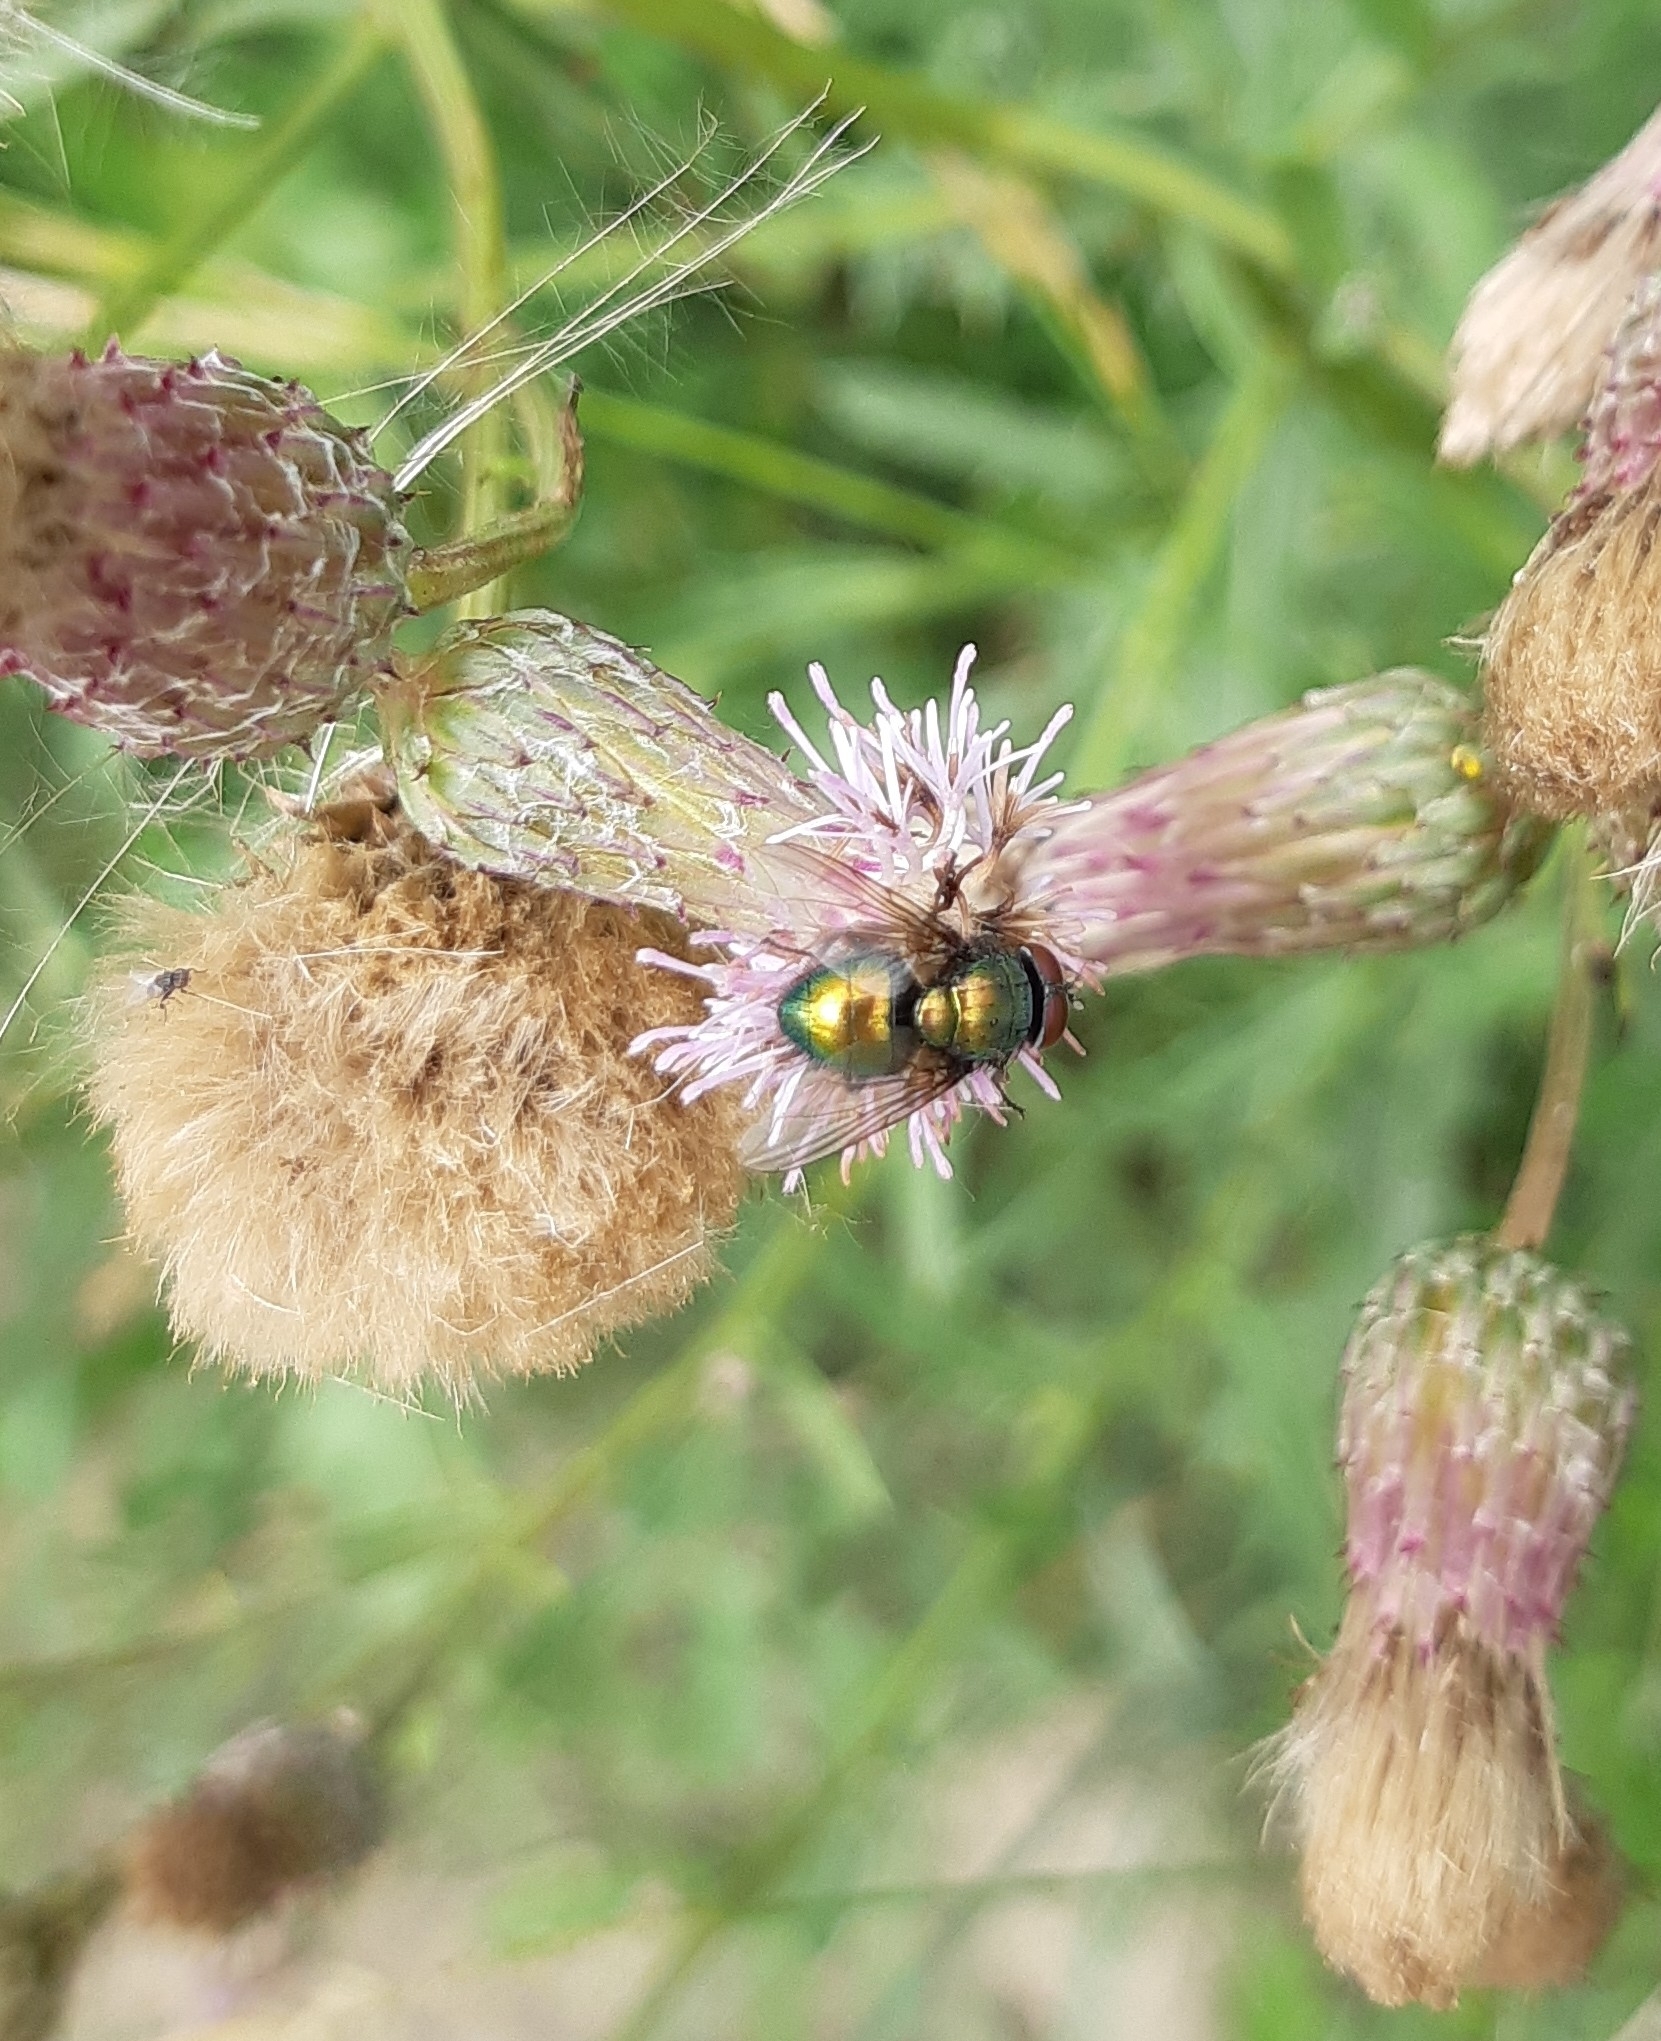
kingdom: Animalia
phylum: Arthropoda
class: Insecta
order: Diptera
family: Calliphoridae
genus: Lucilia
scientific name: Lucilia
